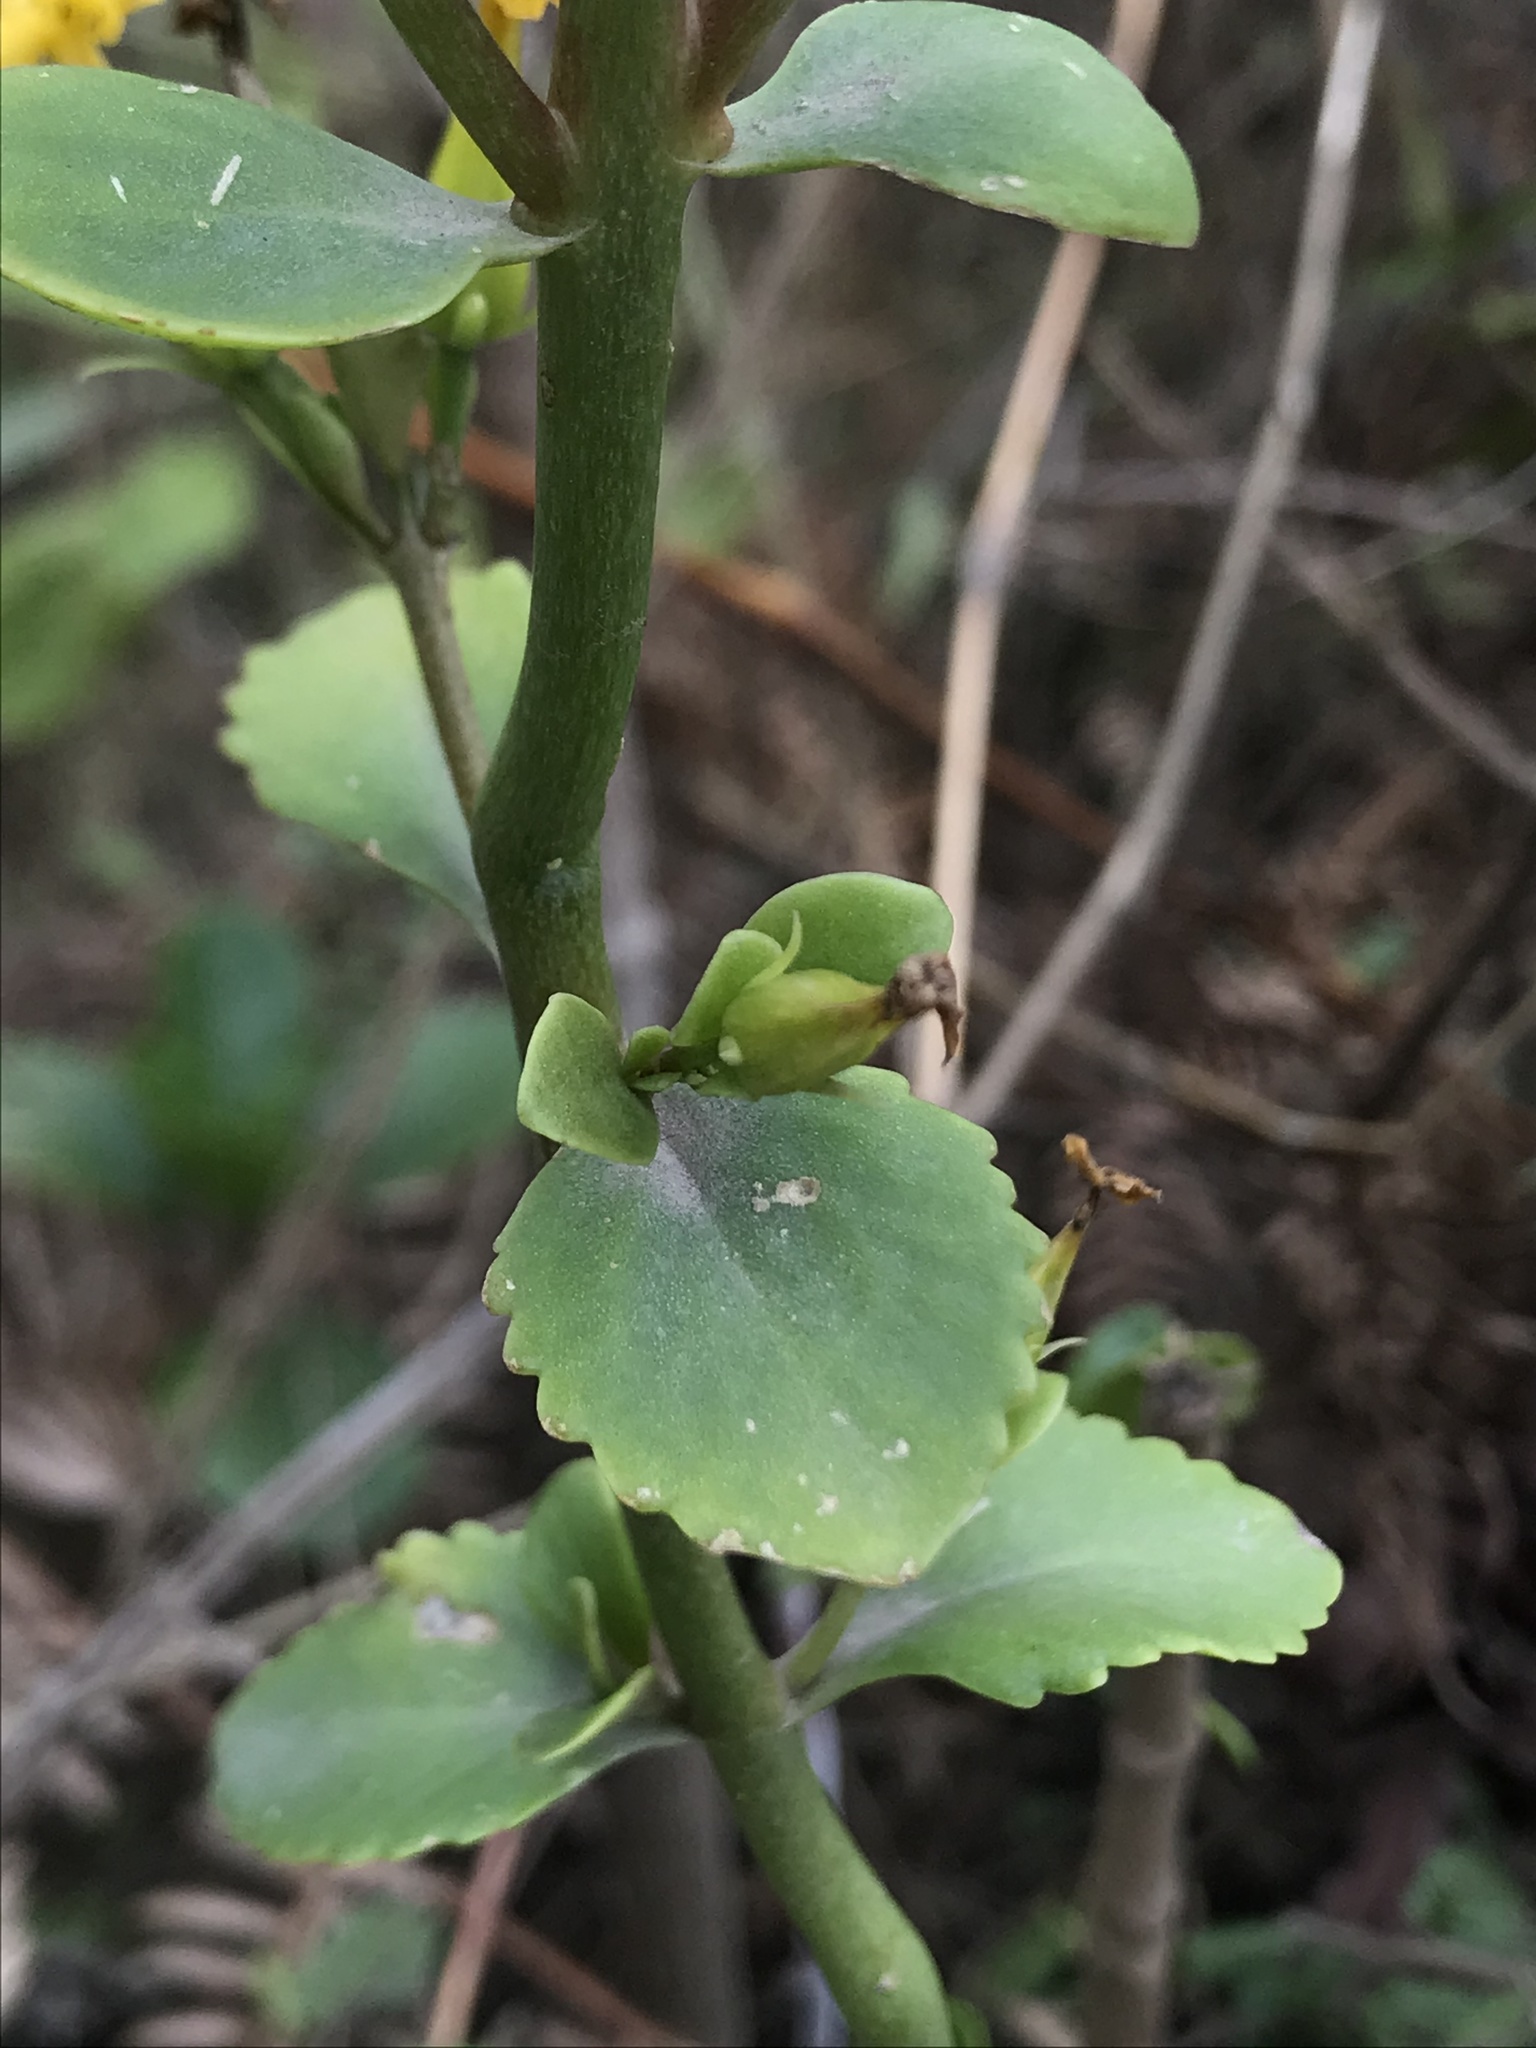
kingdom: Plantae
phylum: Tracheophyta
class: Magnoliopsida
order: Saxifragales
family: Crassulaceae
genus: Kalanchoe
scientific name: Kalanchoe densiflora
